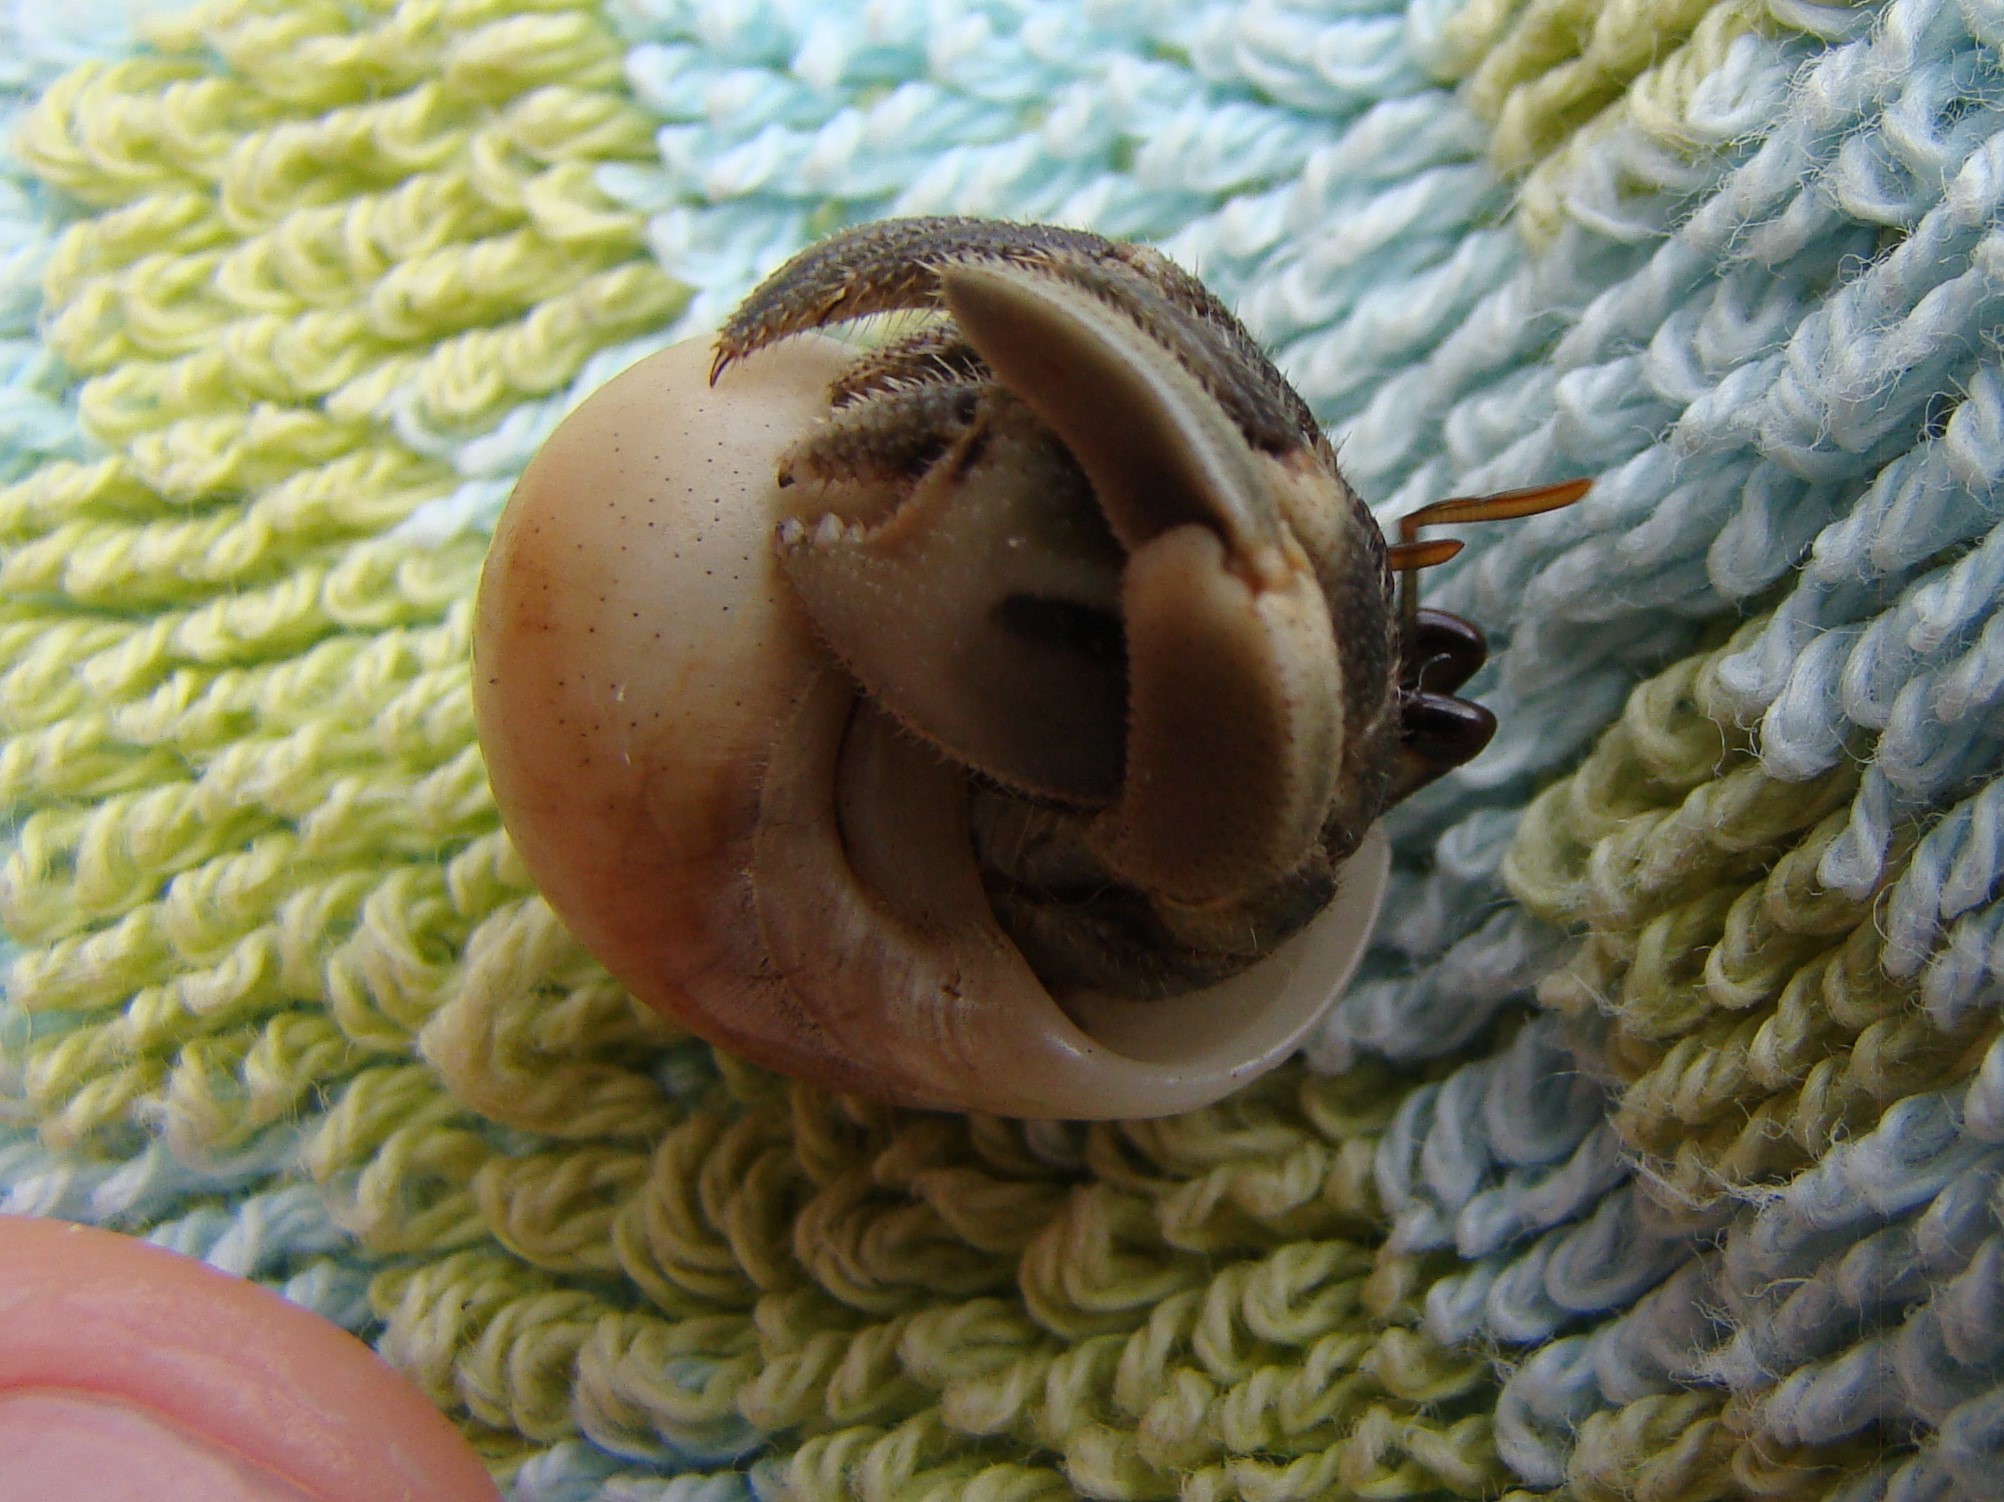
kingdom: Animalia
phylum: Arthropoda
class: Malacostraca
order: Decapoda
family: Coenobitidae
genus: Coenobita
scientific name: Coenobita rugosus
